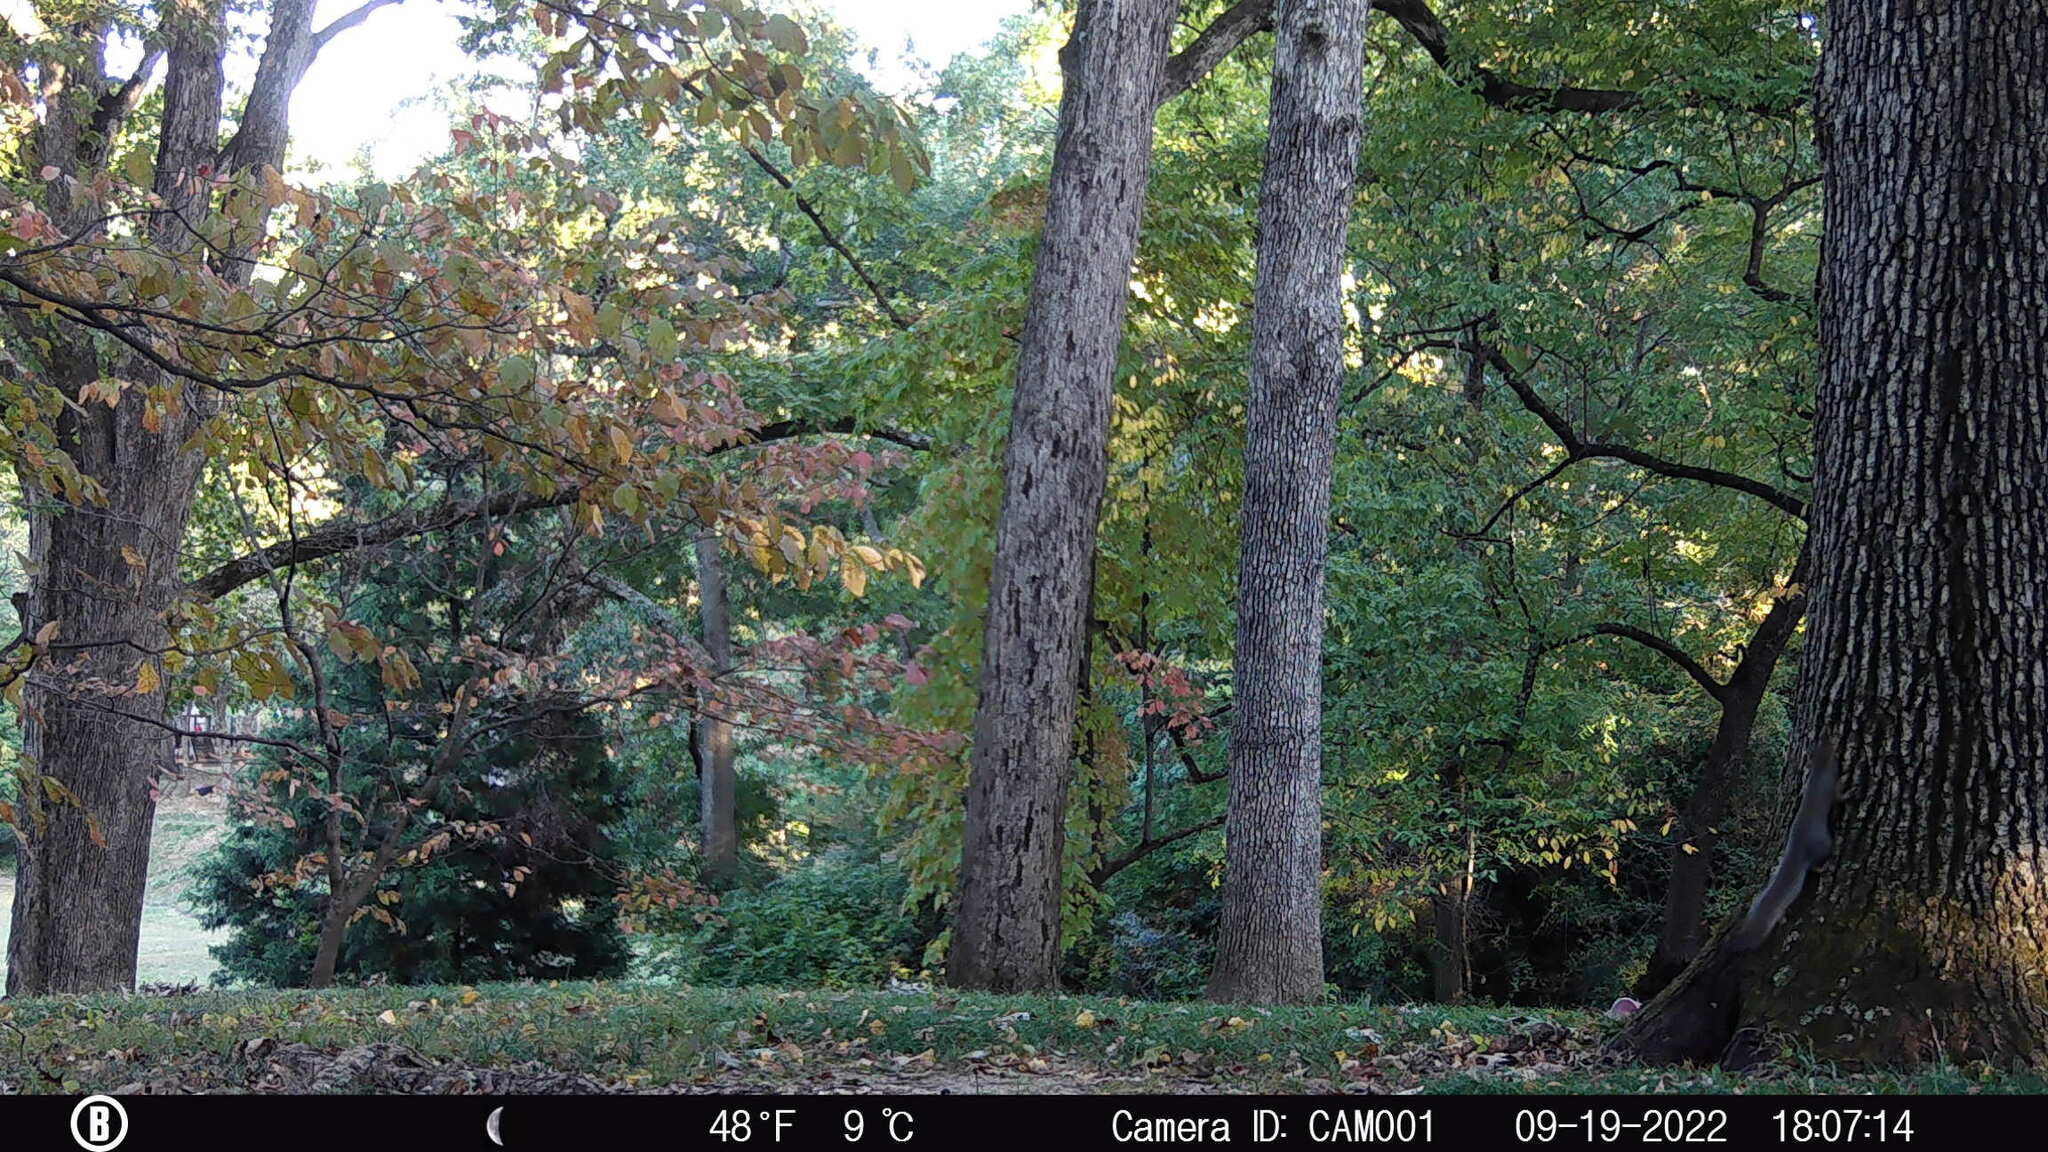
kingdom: Animalia
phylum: Chordata
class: Mammalia
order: Rodentia
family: Sciuridae
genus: Sciurus
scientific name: Sciurus carolinensis
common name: Eastern gray squirrel
